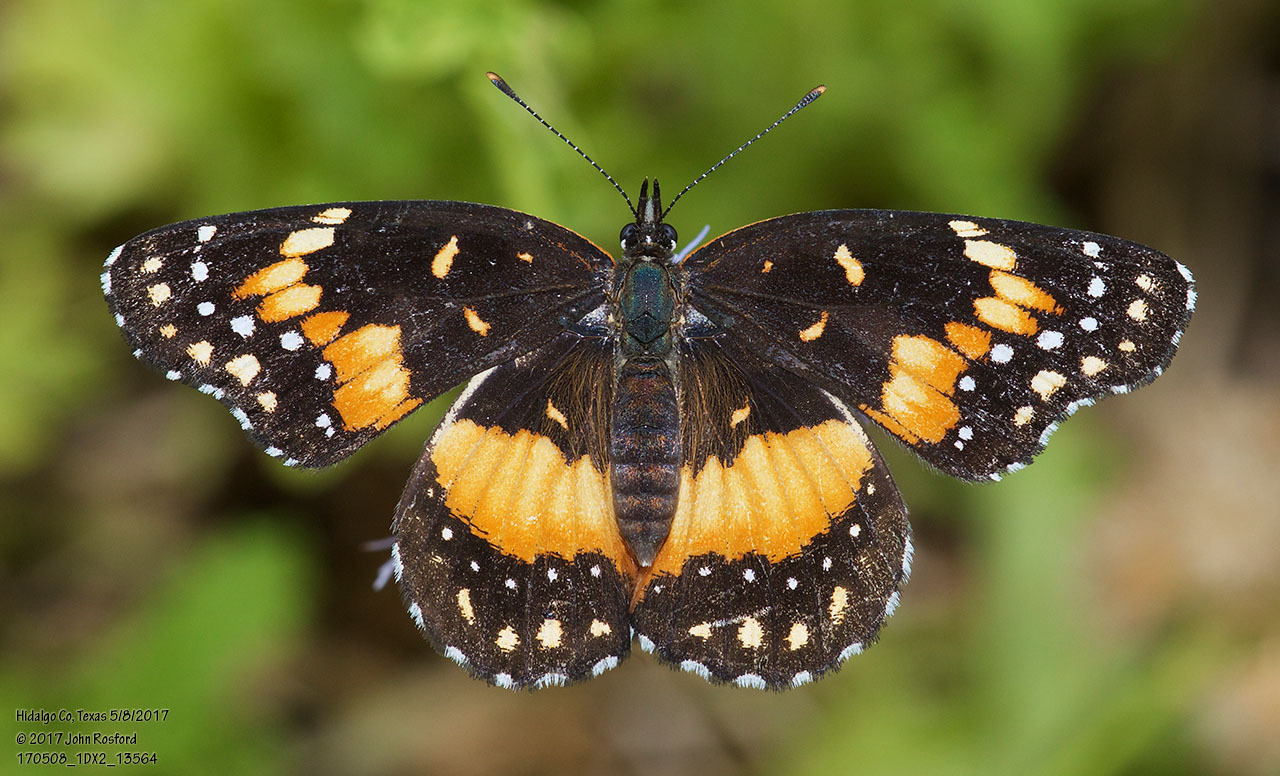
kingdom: Animalia
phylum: Arthropoda
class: Insecta
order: Lepidoptera
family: Nymphalidae
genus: Chlosyne
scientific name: Chlosyne lacinia
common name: Bordered patch
